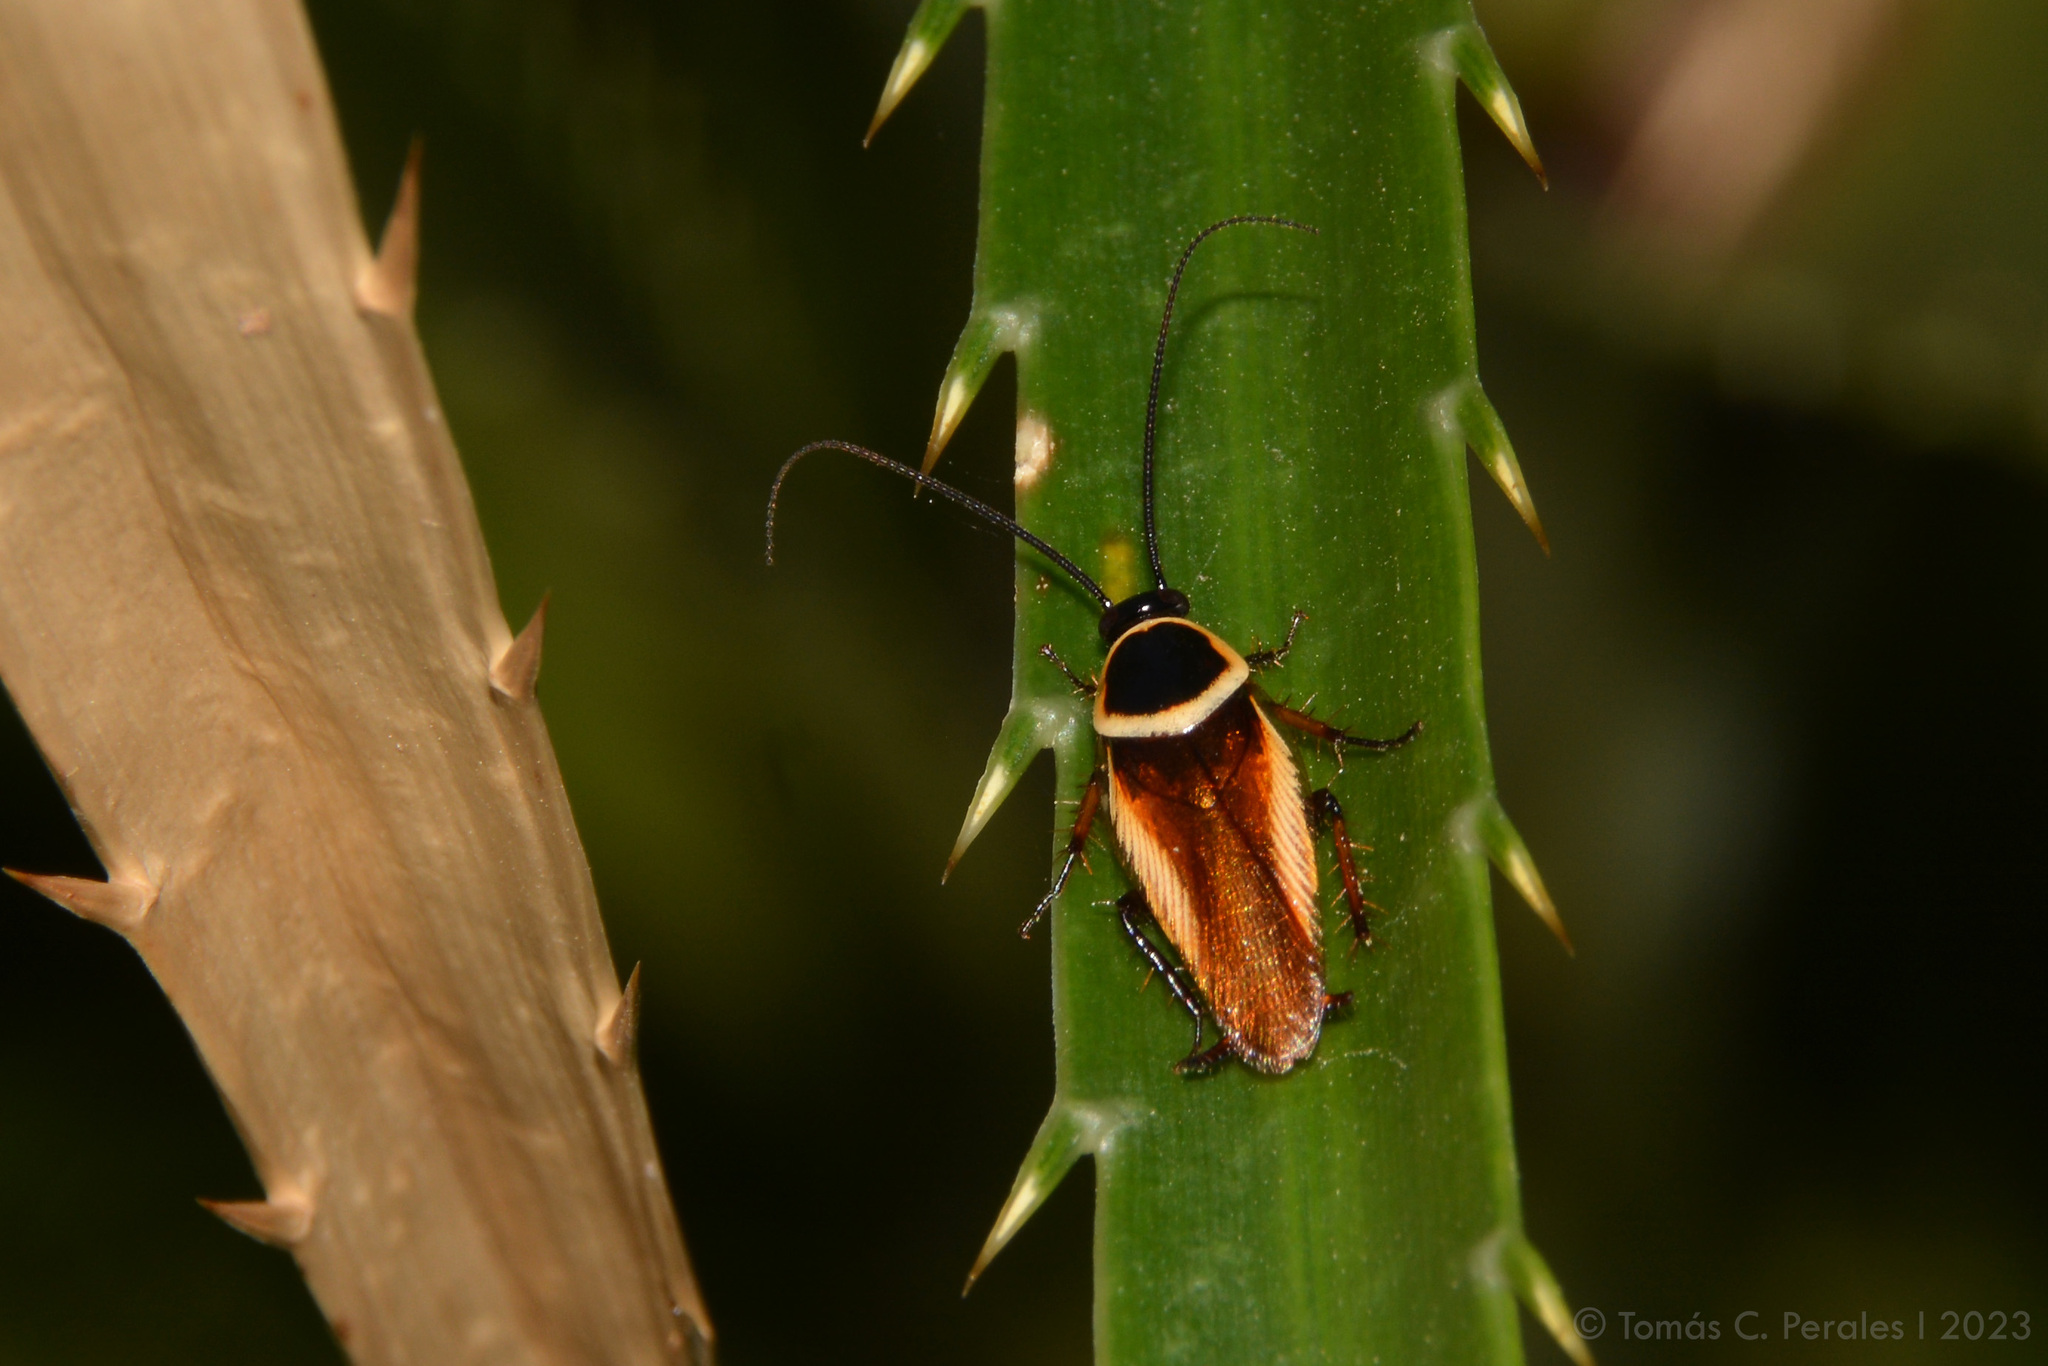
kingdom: Animalia
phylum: Arthropoda
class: Insecta
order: Blattodea
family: Ectobiidae
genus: Pseudomops
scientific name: Pseudomops neglectus
